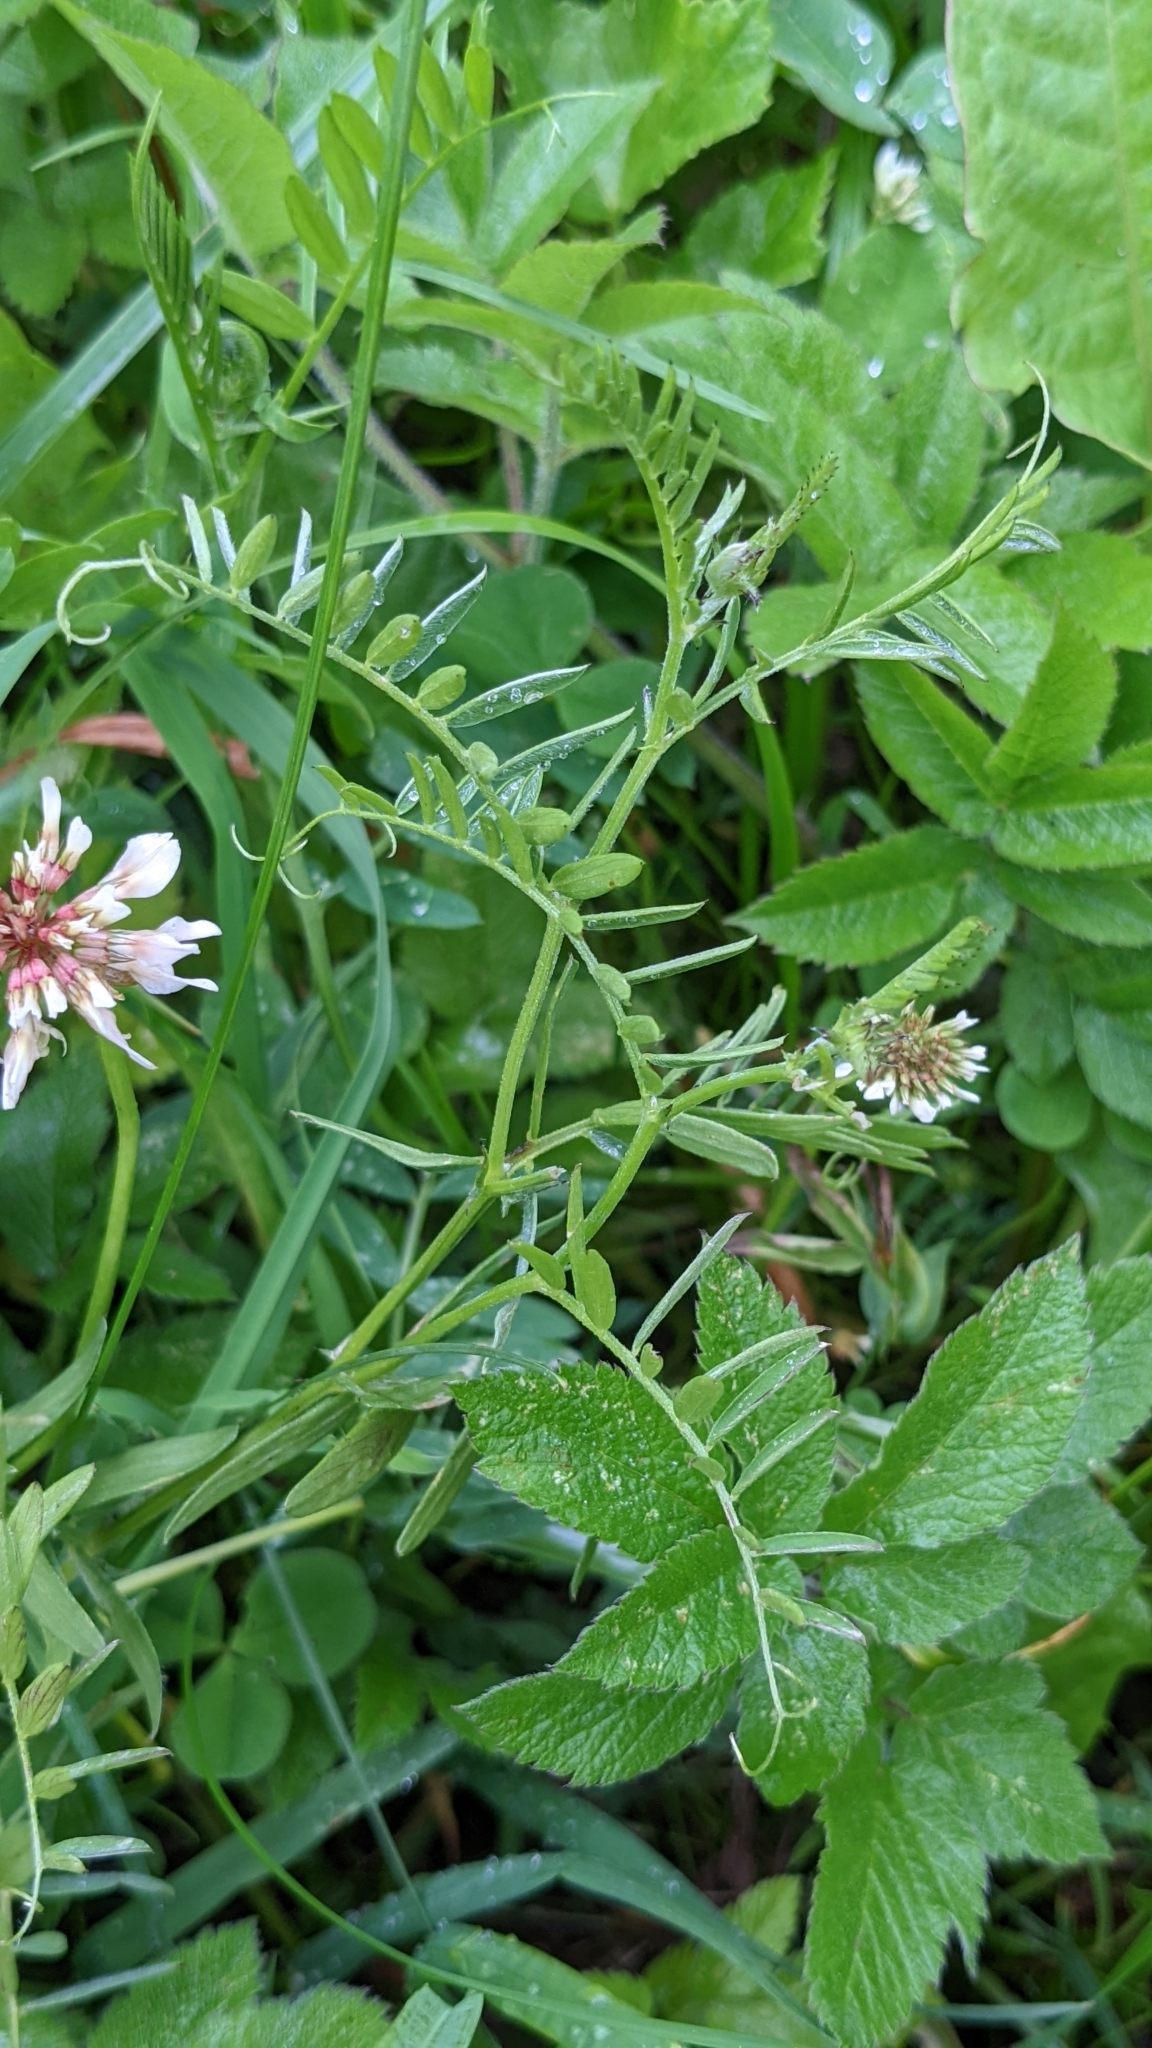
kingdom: Plantae
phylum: Tracheophyta
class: Magnoliopsida
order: Fabales
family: Fabaceae
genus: Vicia
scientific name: Vicia cracca
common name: Bird vetch
